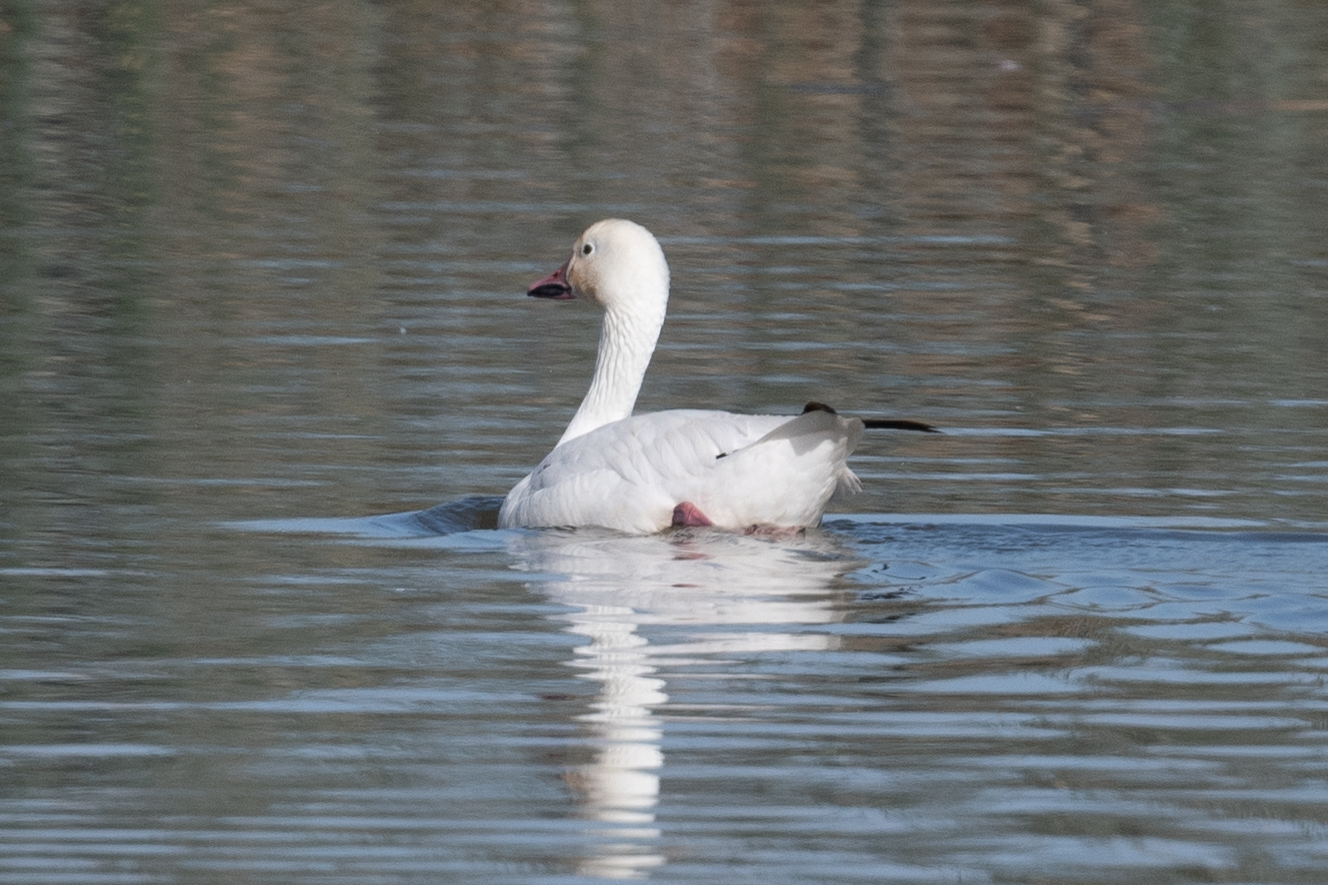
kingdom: Animalia
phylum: Chordata
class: Aves
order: Anseriformes
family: Anatidae
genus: Anser
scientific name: Anser caerulescens
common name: Snow goose
